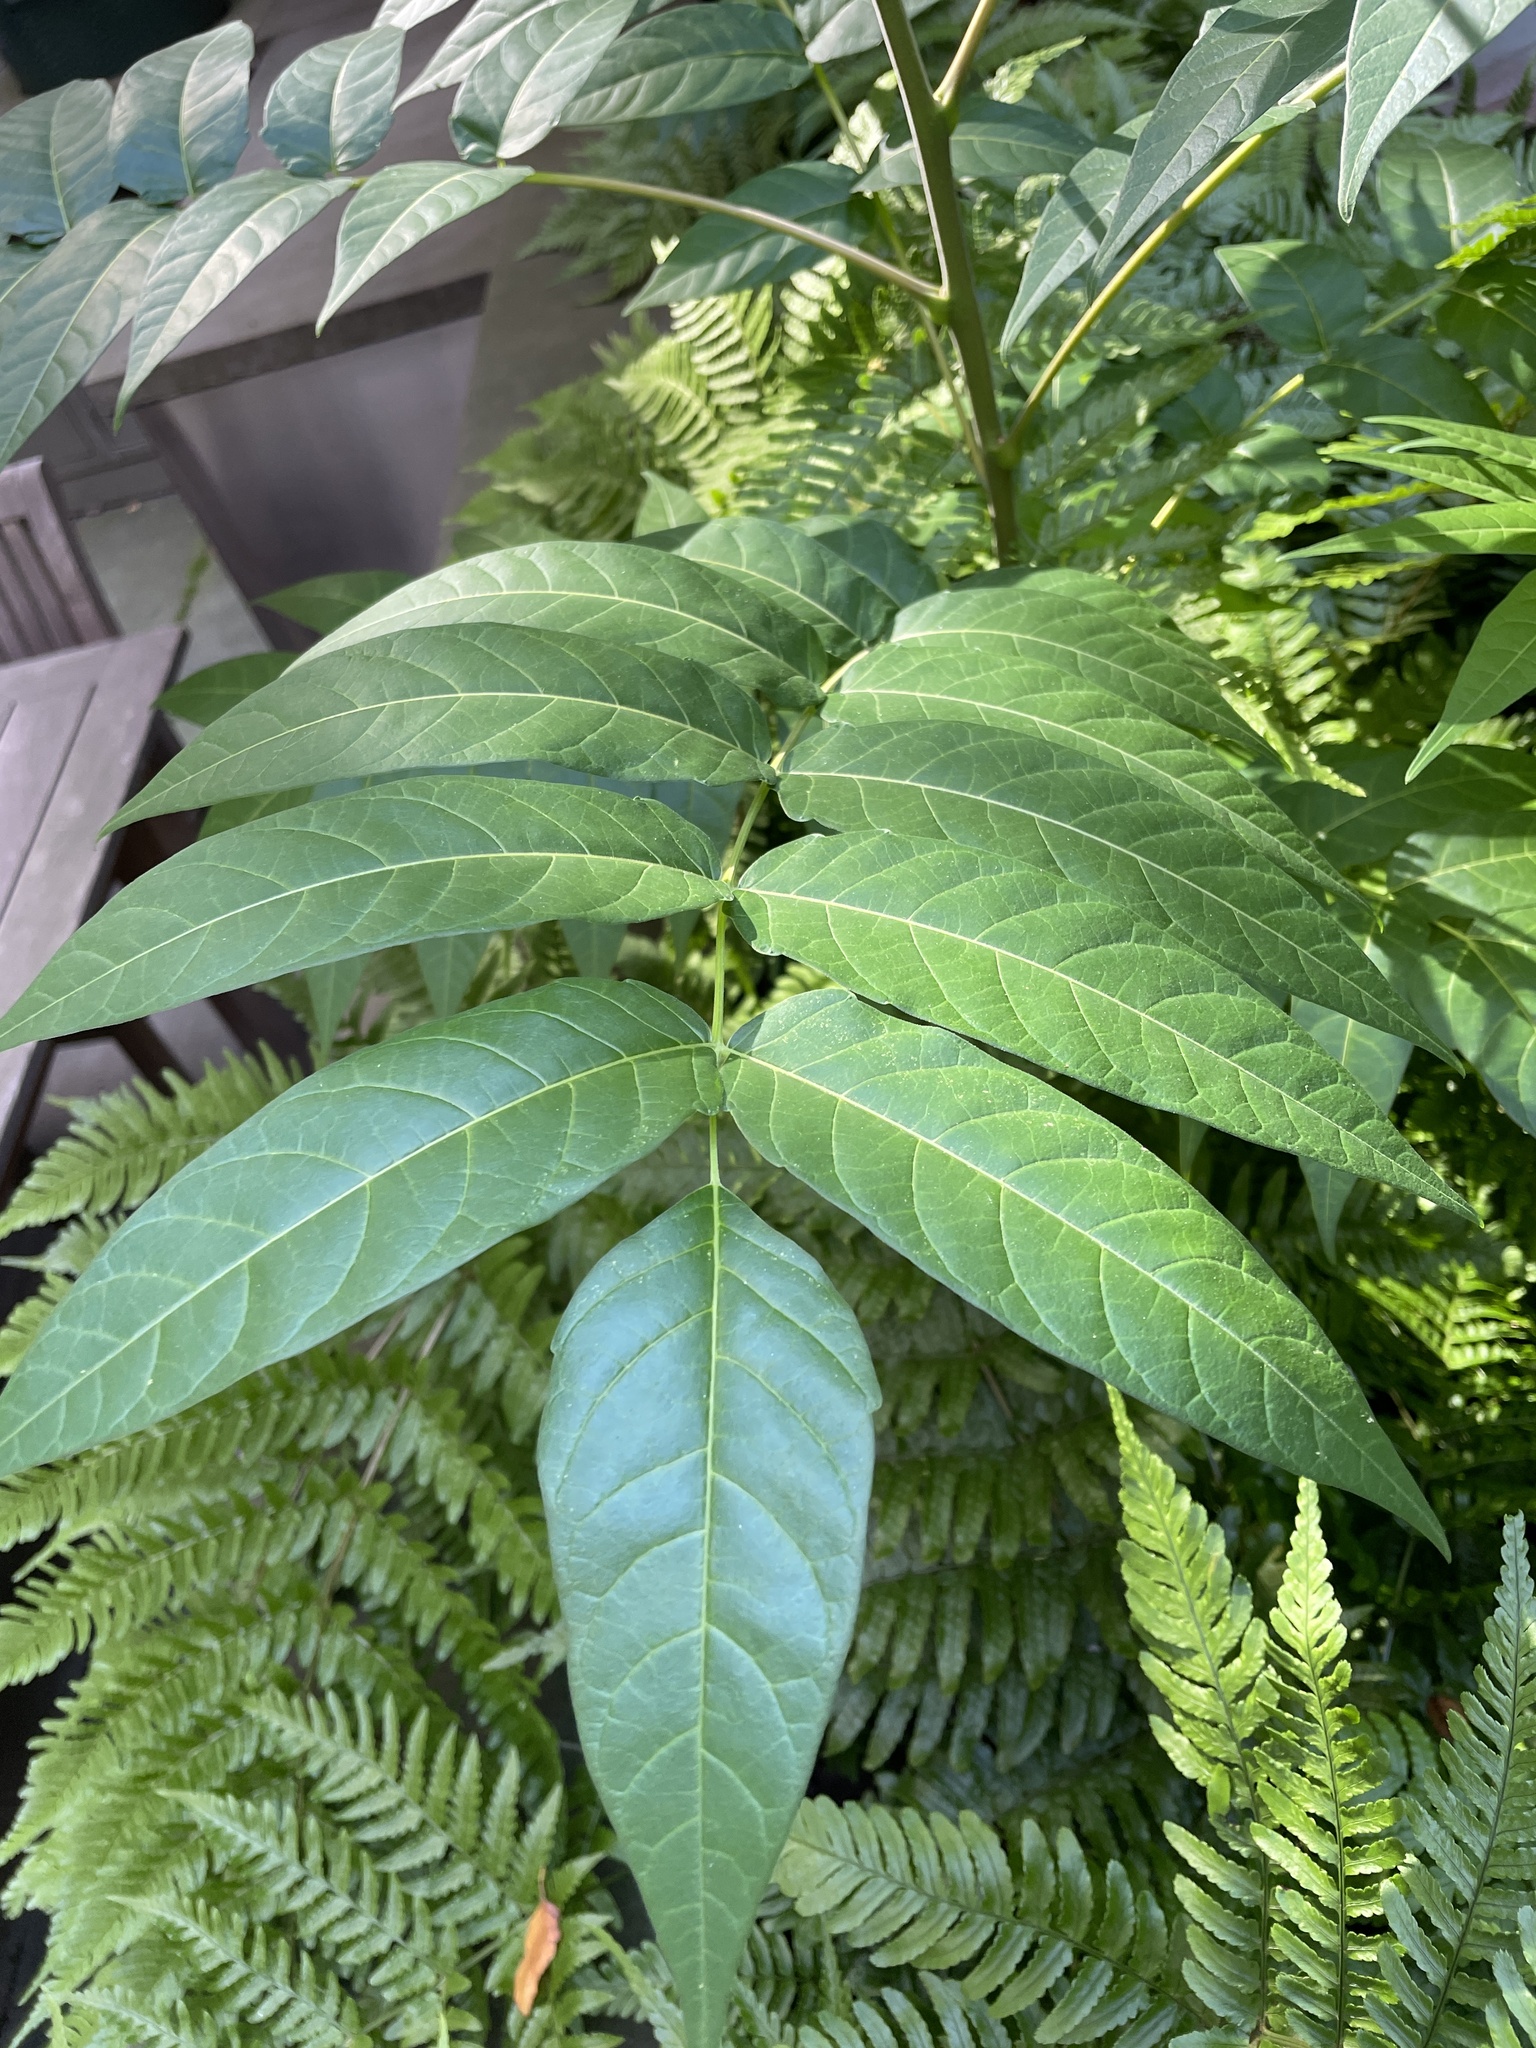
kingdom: Plantae
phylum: Tracheophyta
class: Magnoliopsida
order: Sapindales
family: Simaroubaceae
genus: Ailanthus
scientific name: Ailanthus altissima
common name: Tree-of-heaven
